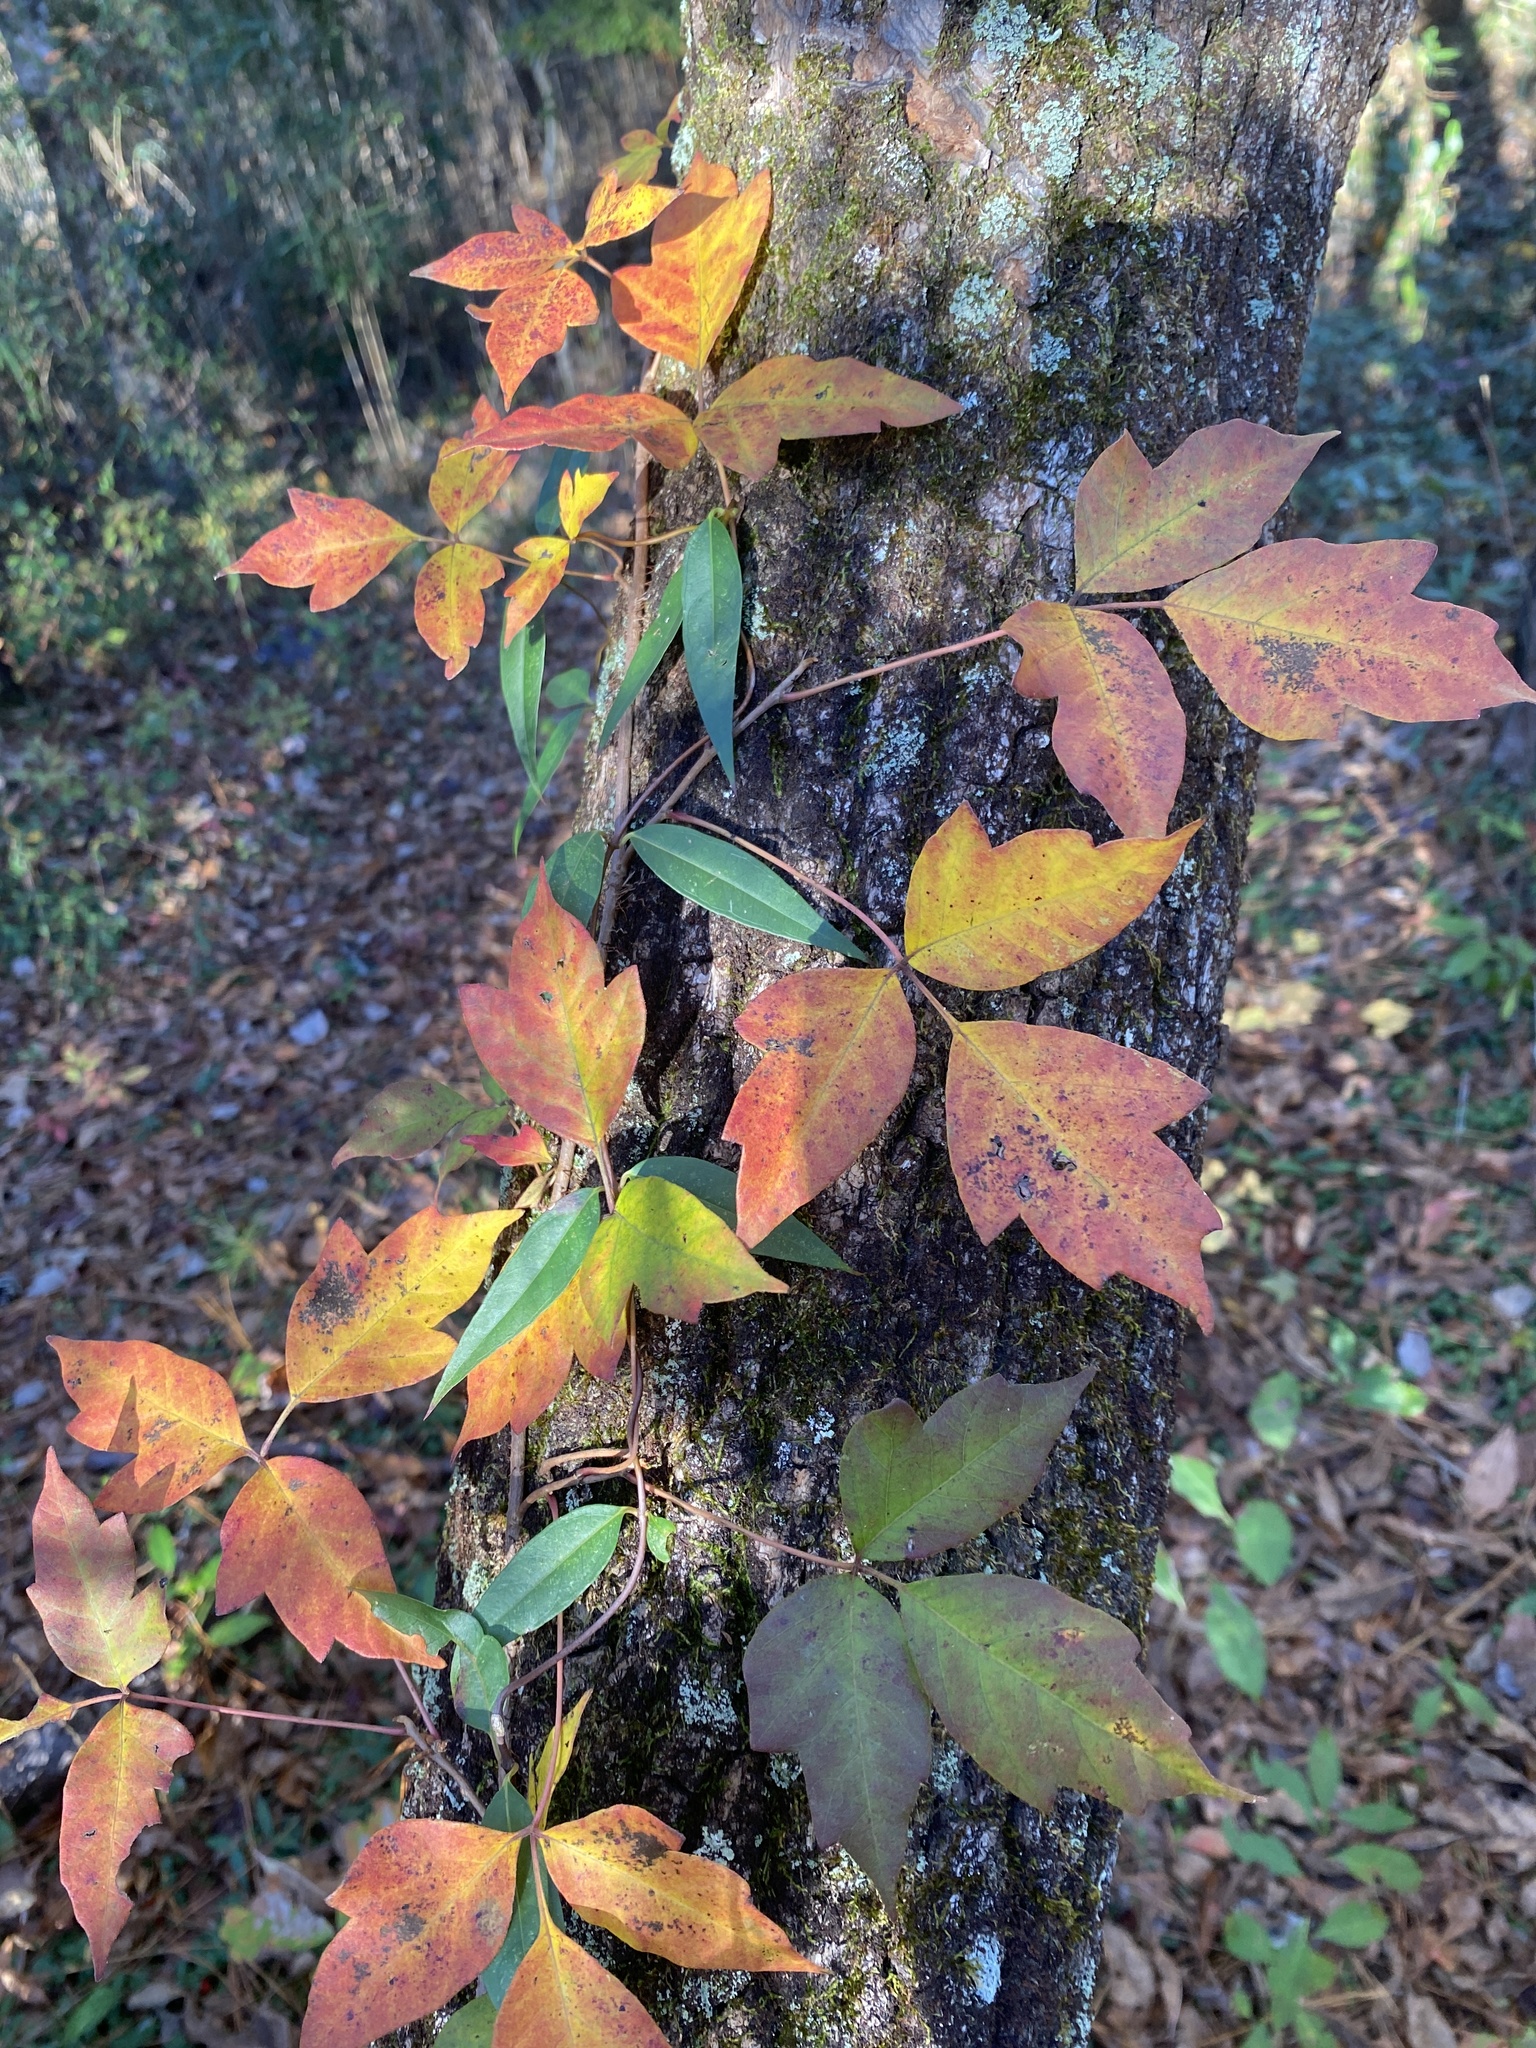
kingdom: Plantae
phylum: Tracheophyta
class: Magnoliopsida
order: Gentianales
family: Gelsemiaceae
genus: Gelsemium
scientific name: Gelsemium sempervirens
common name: Carolina-jasmine
